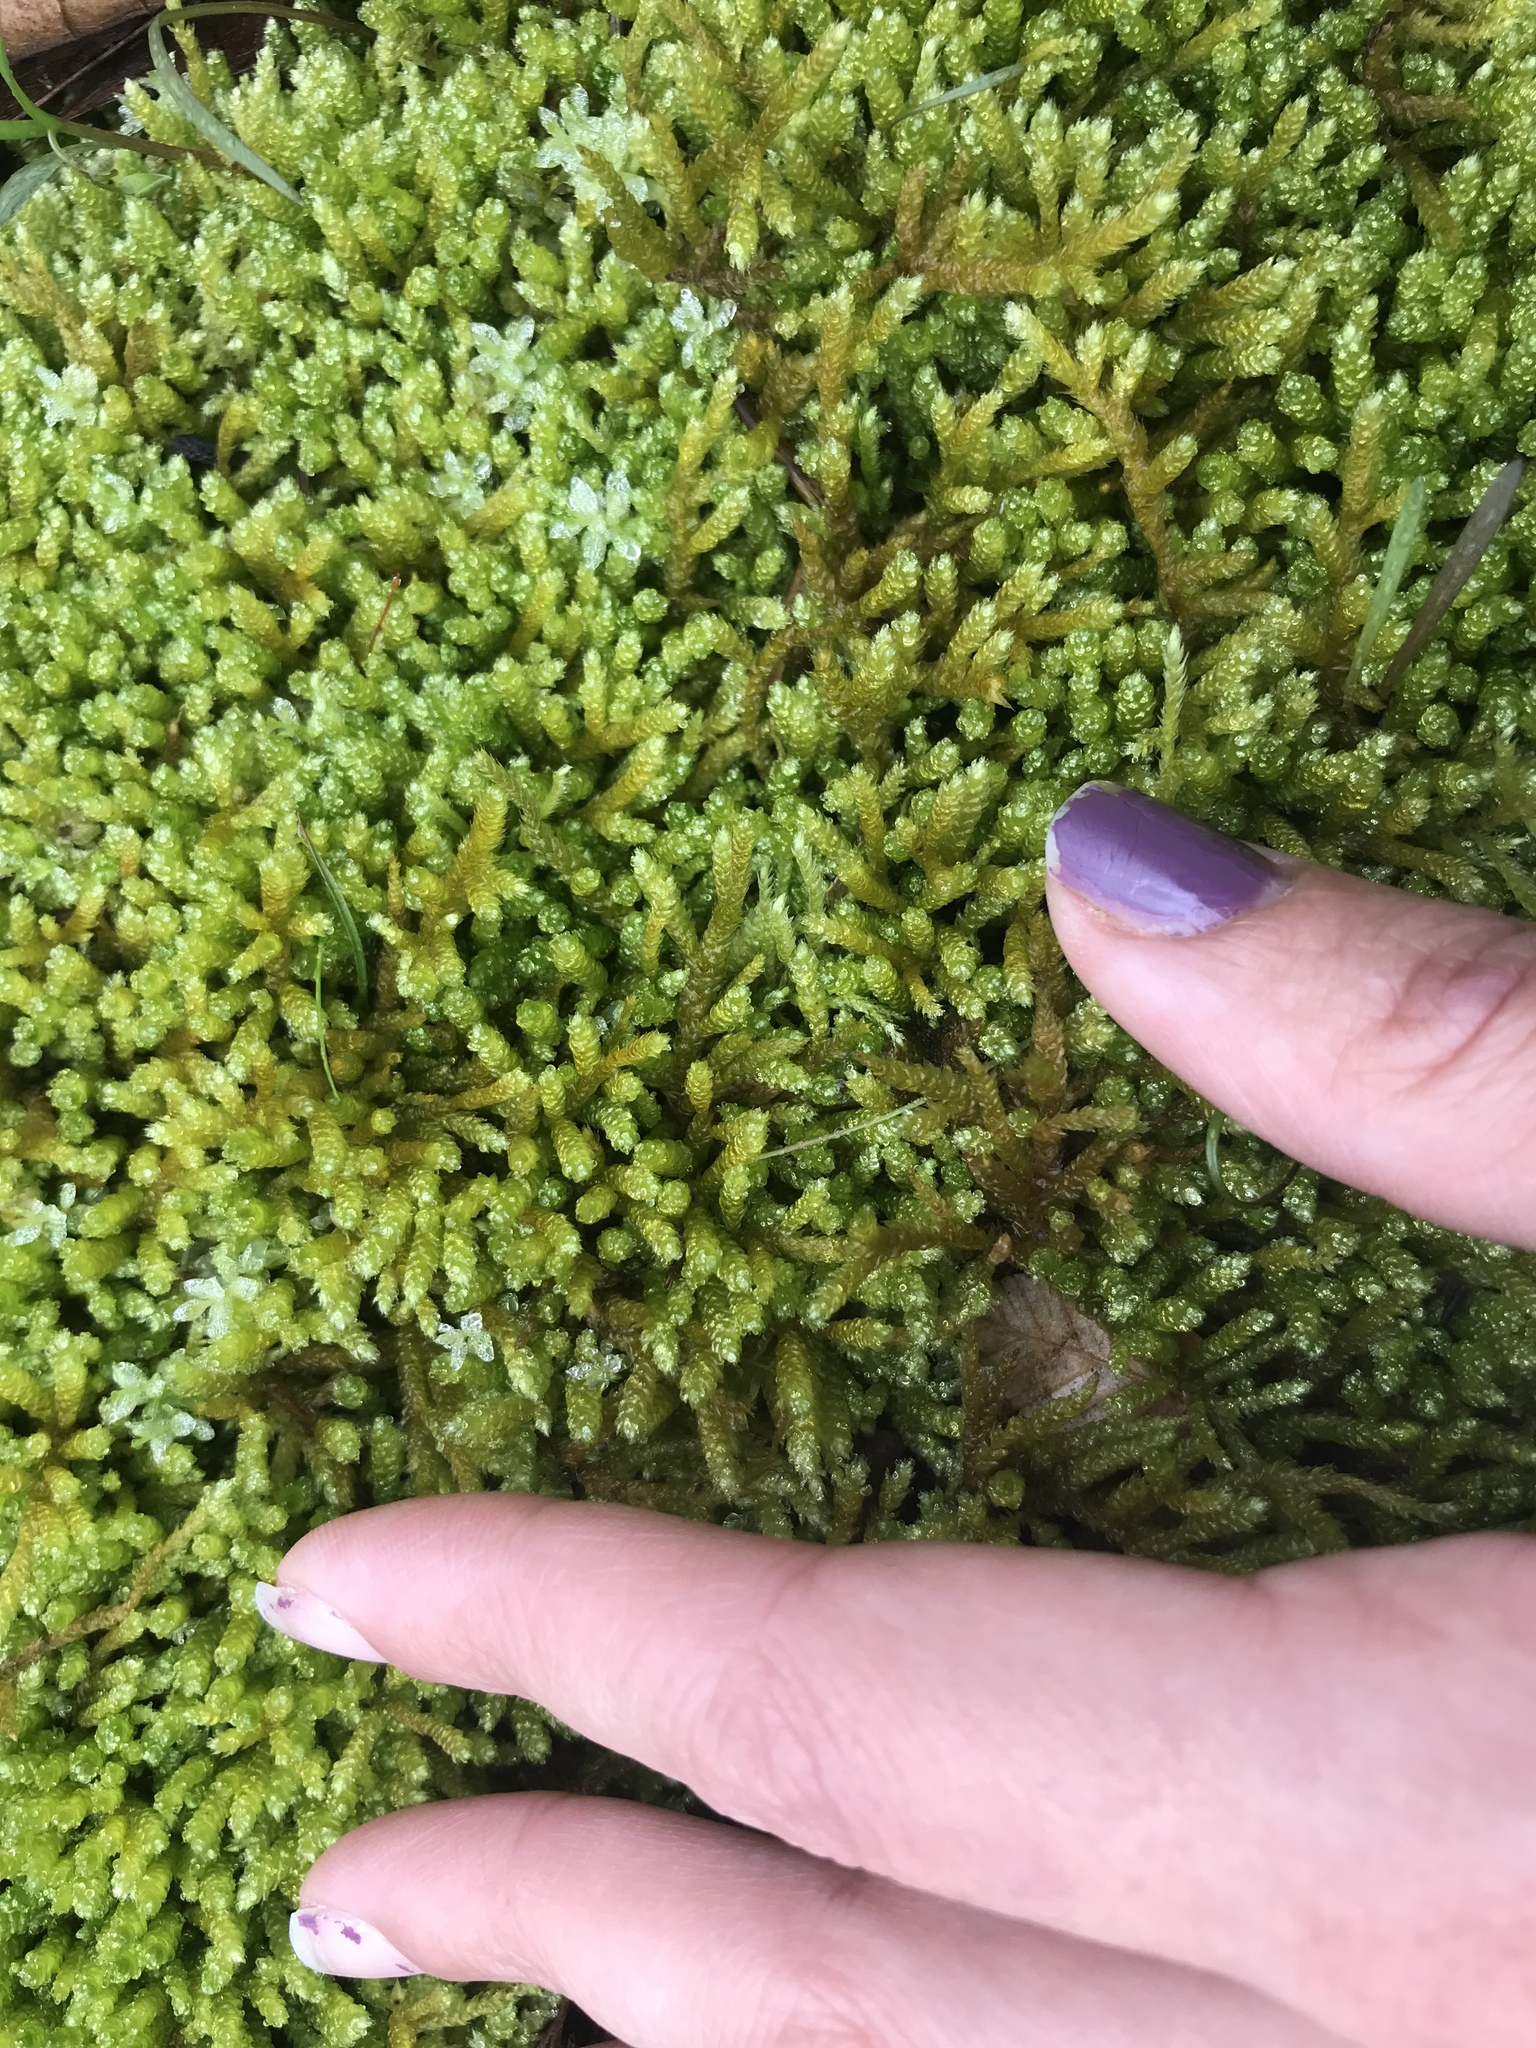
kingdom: Plantae
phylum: Bryophyta
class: Bryopsida
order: Hypnales
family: Brachytheciaceae
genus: Bryoandersonia
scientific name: Bryoandersonia illecebra
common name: Spoon-leaved moss
